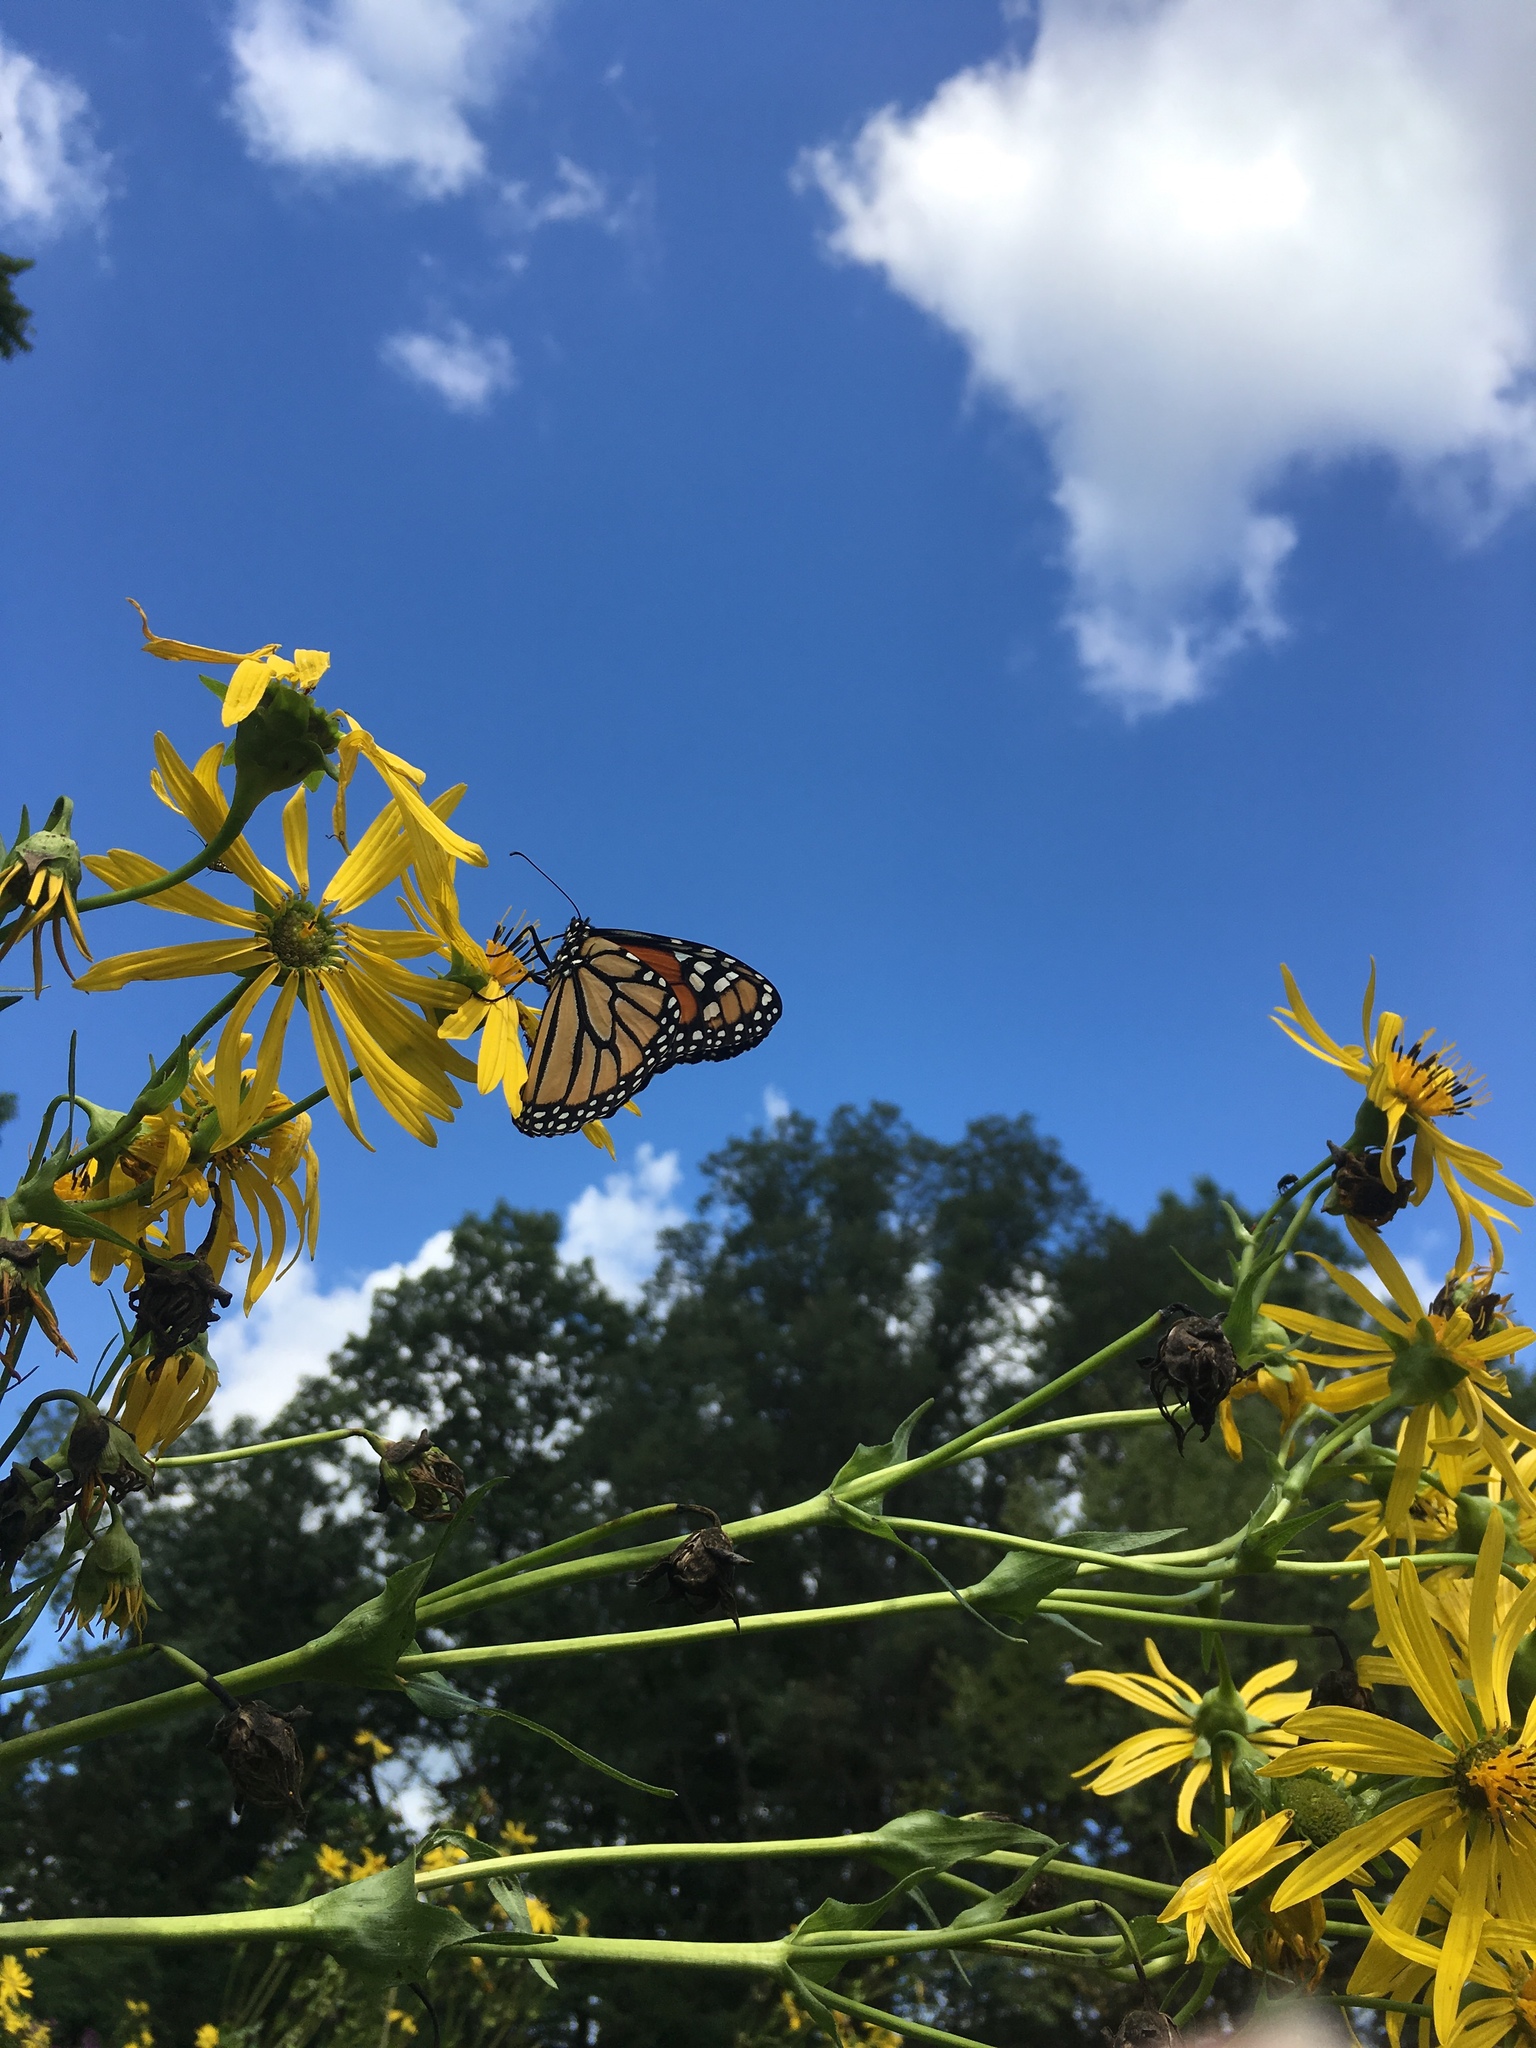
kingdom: Animalia
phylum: Arthropoda
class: Insecta
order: Lepidoptera
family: Nymphalidae
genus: Danaus
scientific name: Danaus plexippus
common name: Monarch
